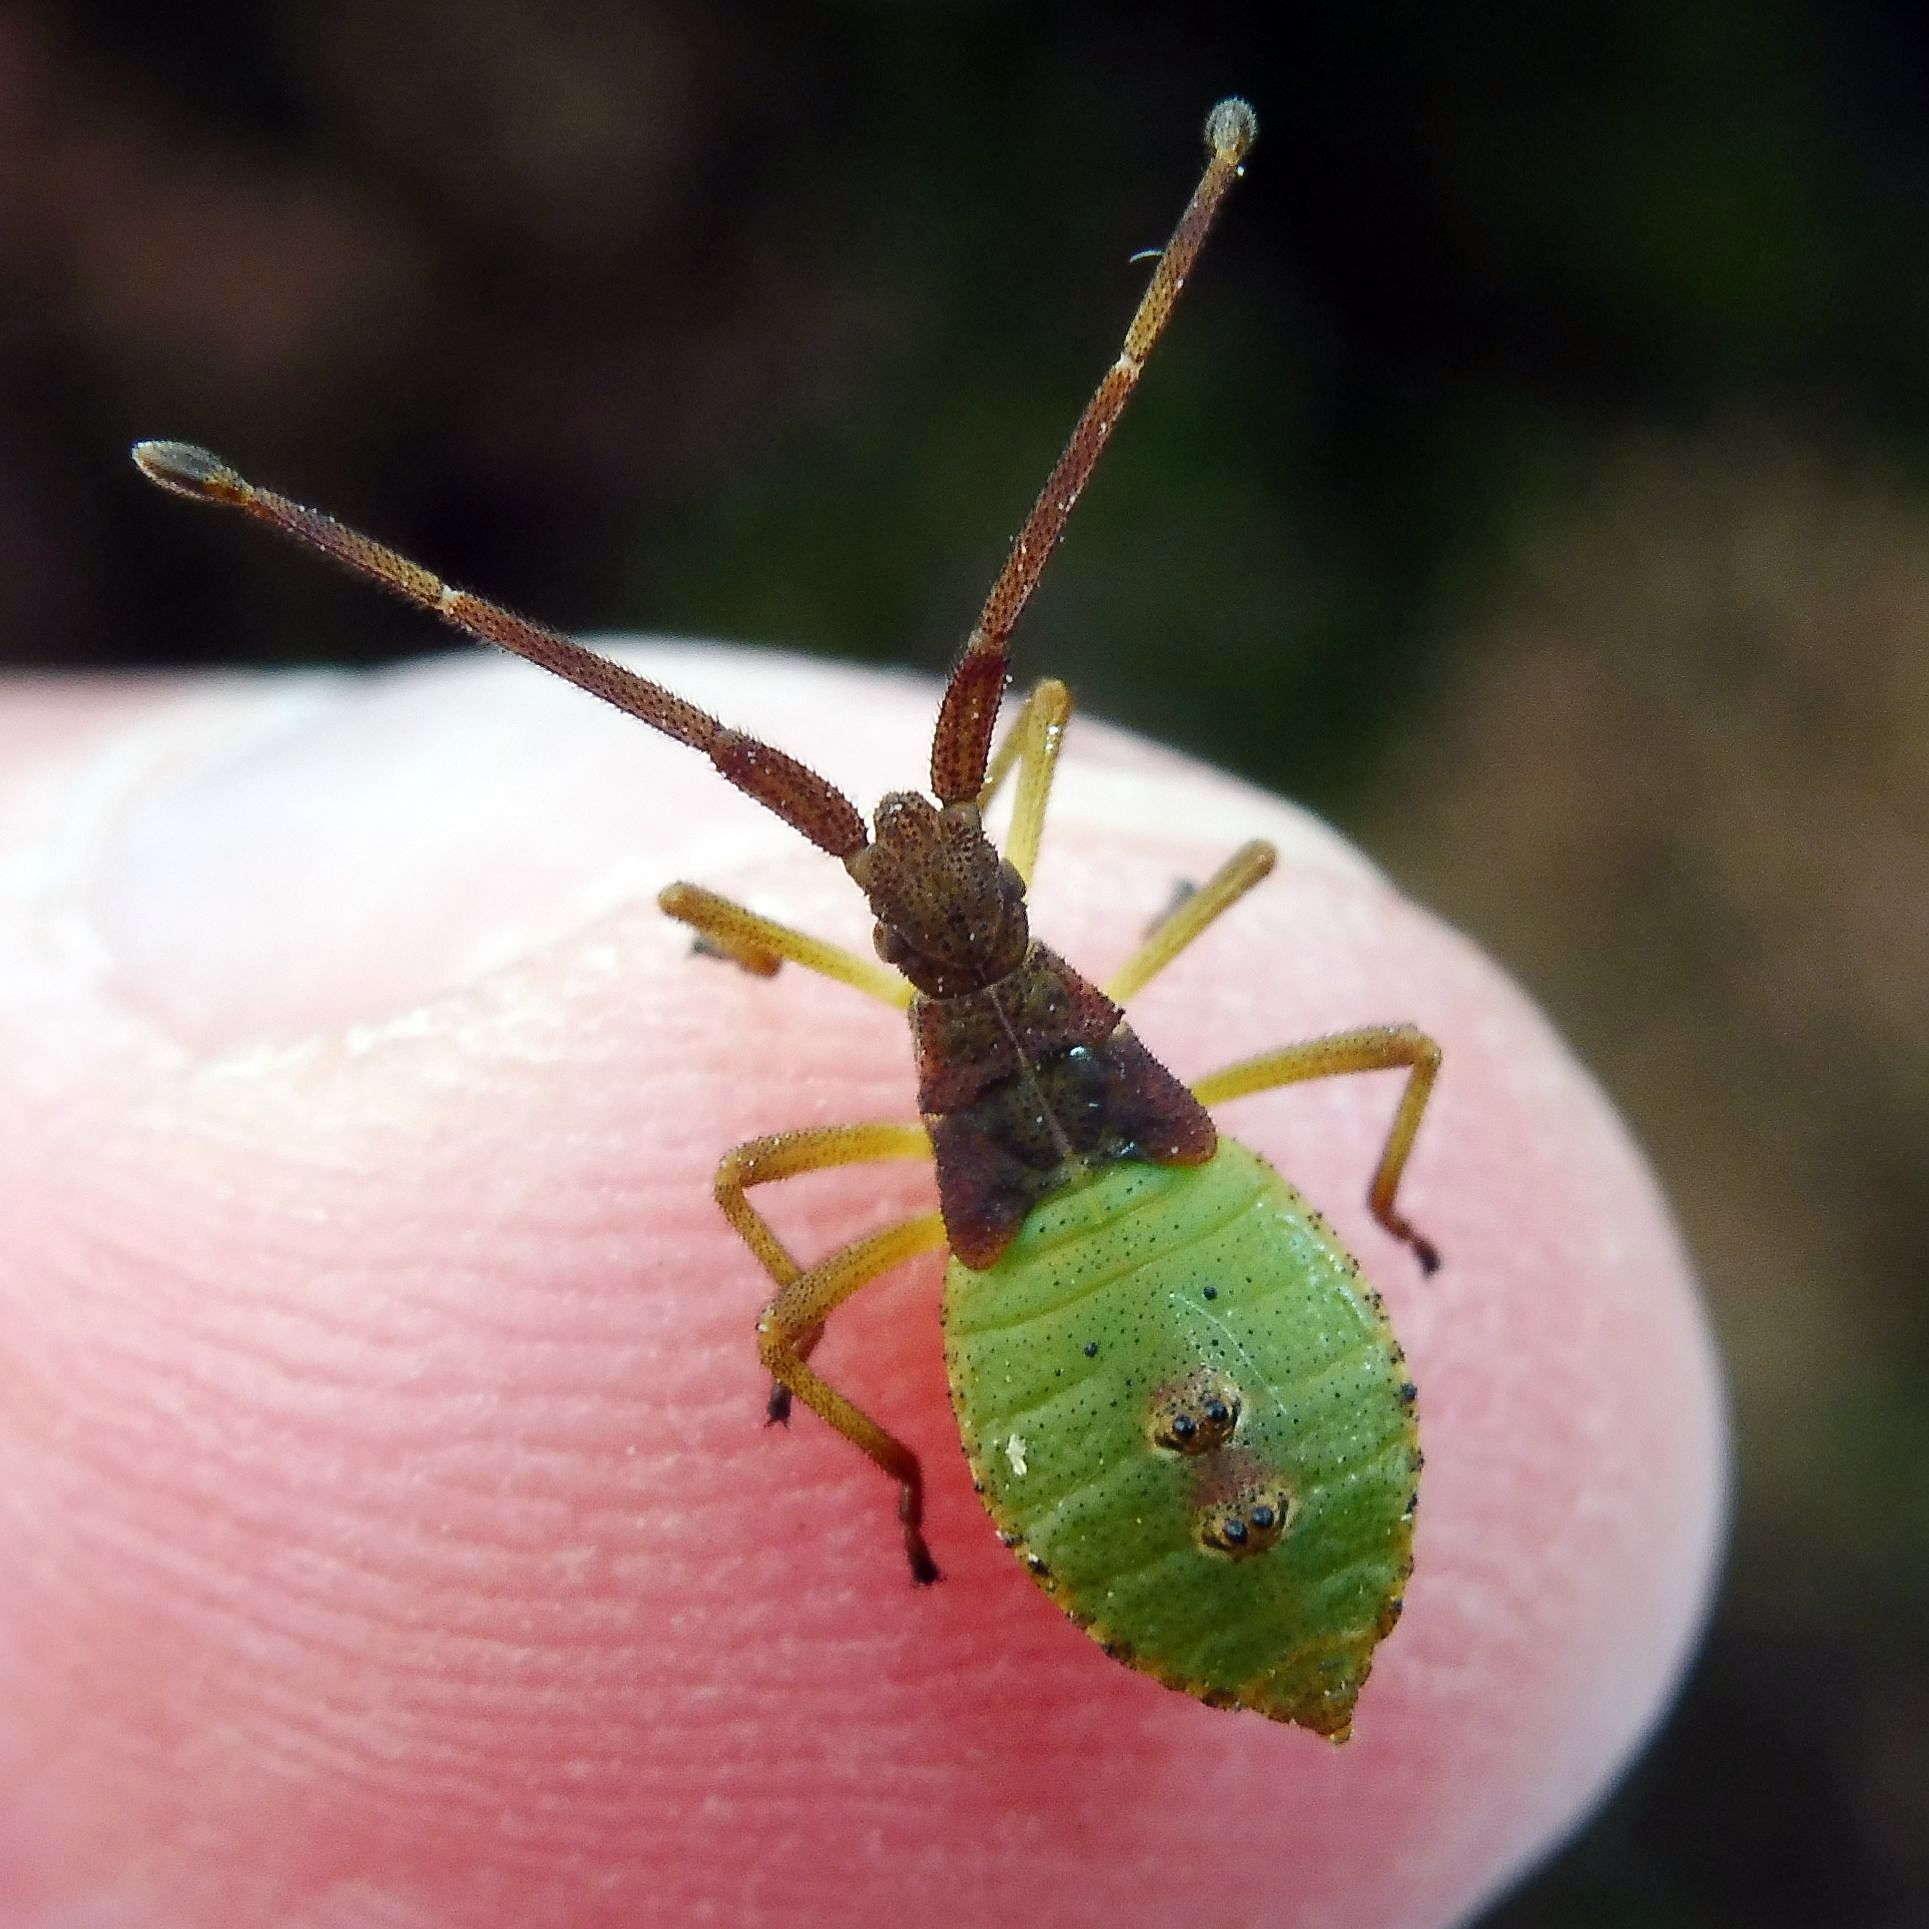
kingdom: Animalia
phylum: Arthropoda
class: Insecta
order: Hemiptera
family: Coreidae
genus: Gonocerus
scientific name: Gonocerus acuteangulatus
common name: Box bug
